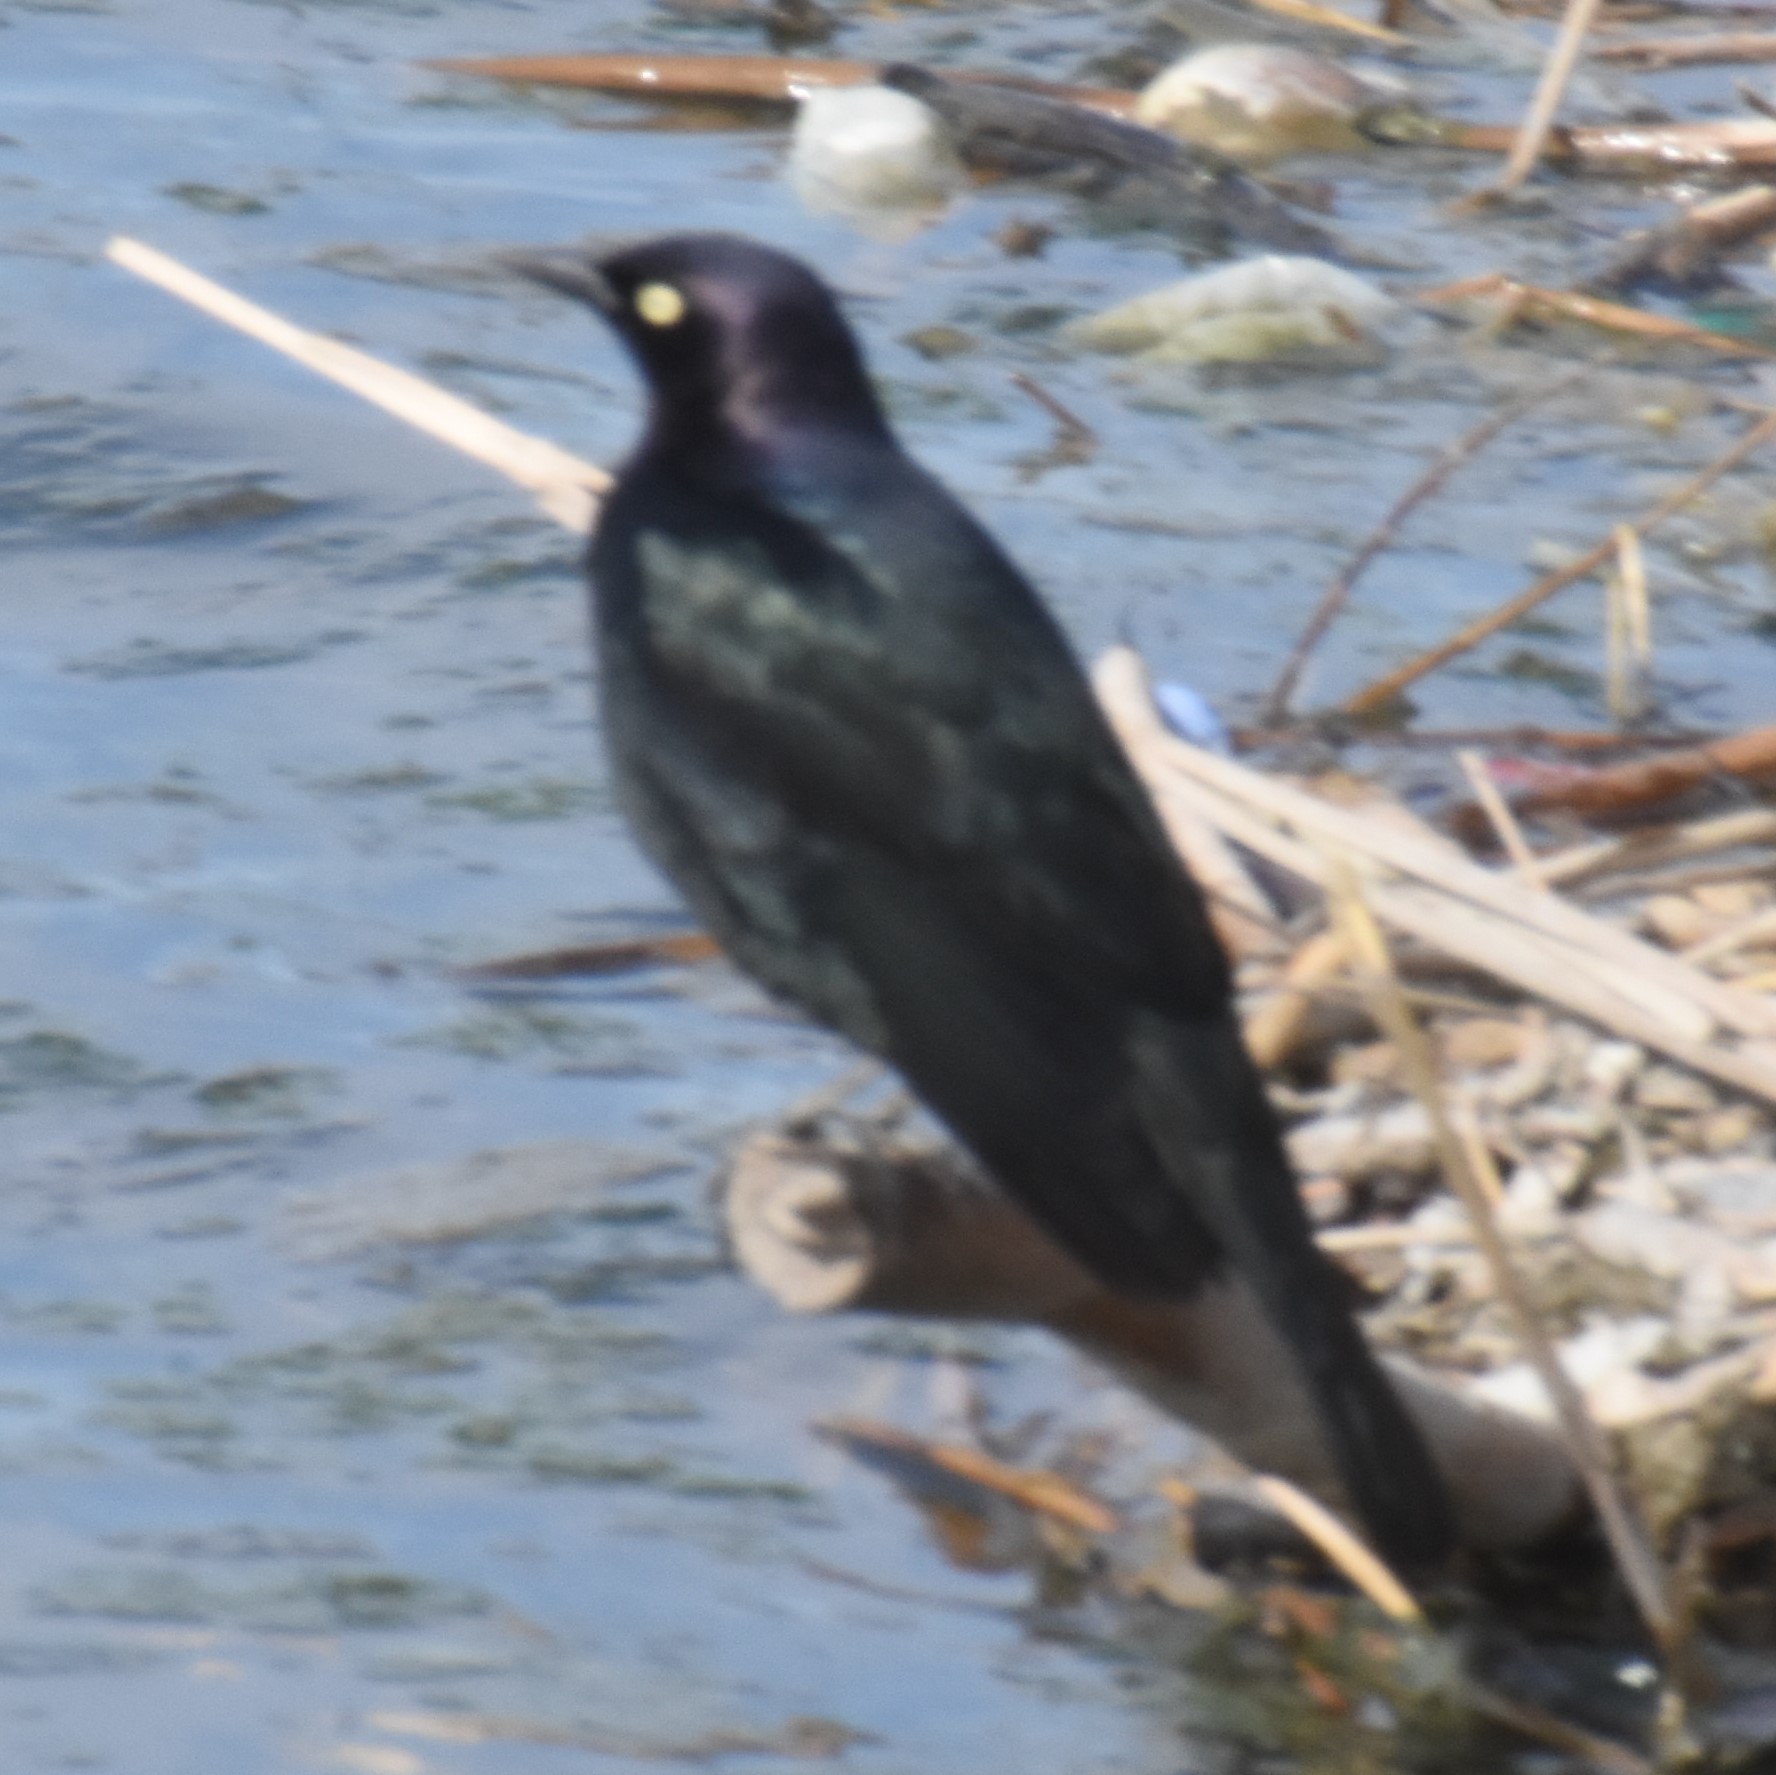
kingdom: Animalia
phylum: Chordata
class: Aves
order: Passeriformes
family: Icteridae
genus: Euphagus
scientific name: Euphagus cyanocephalus
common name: Brewer's blackbird
